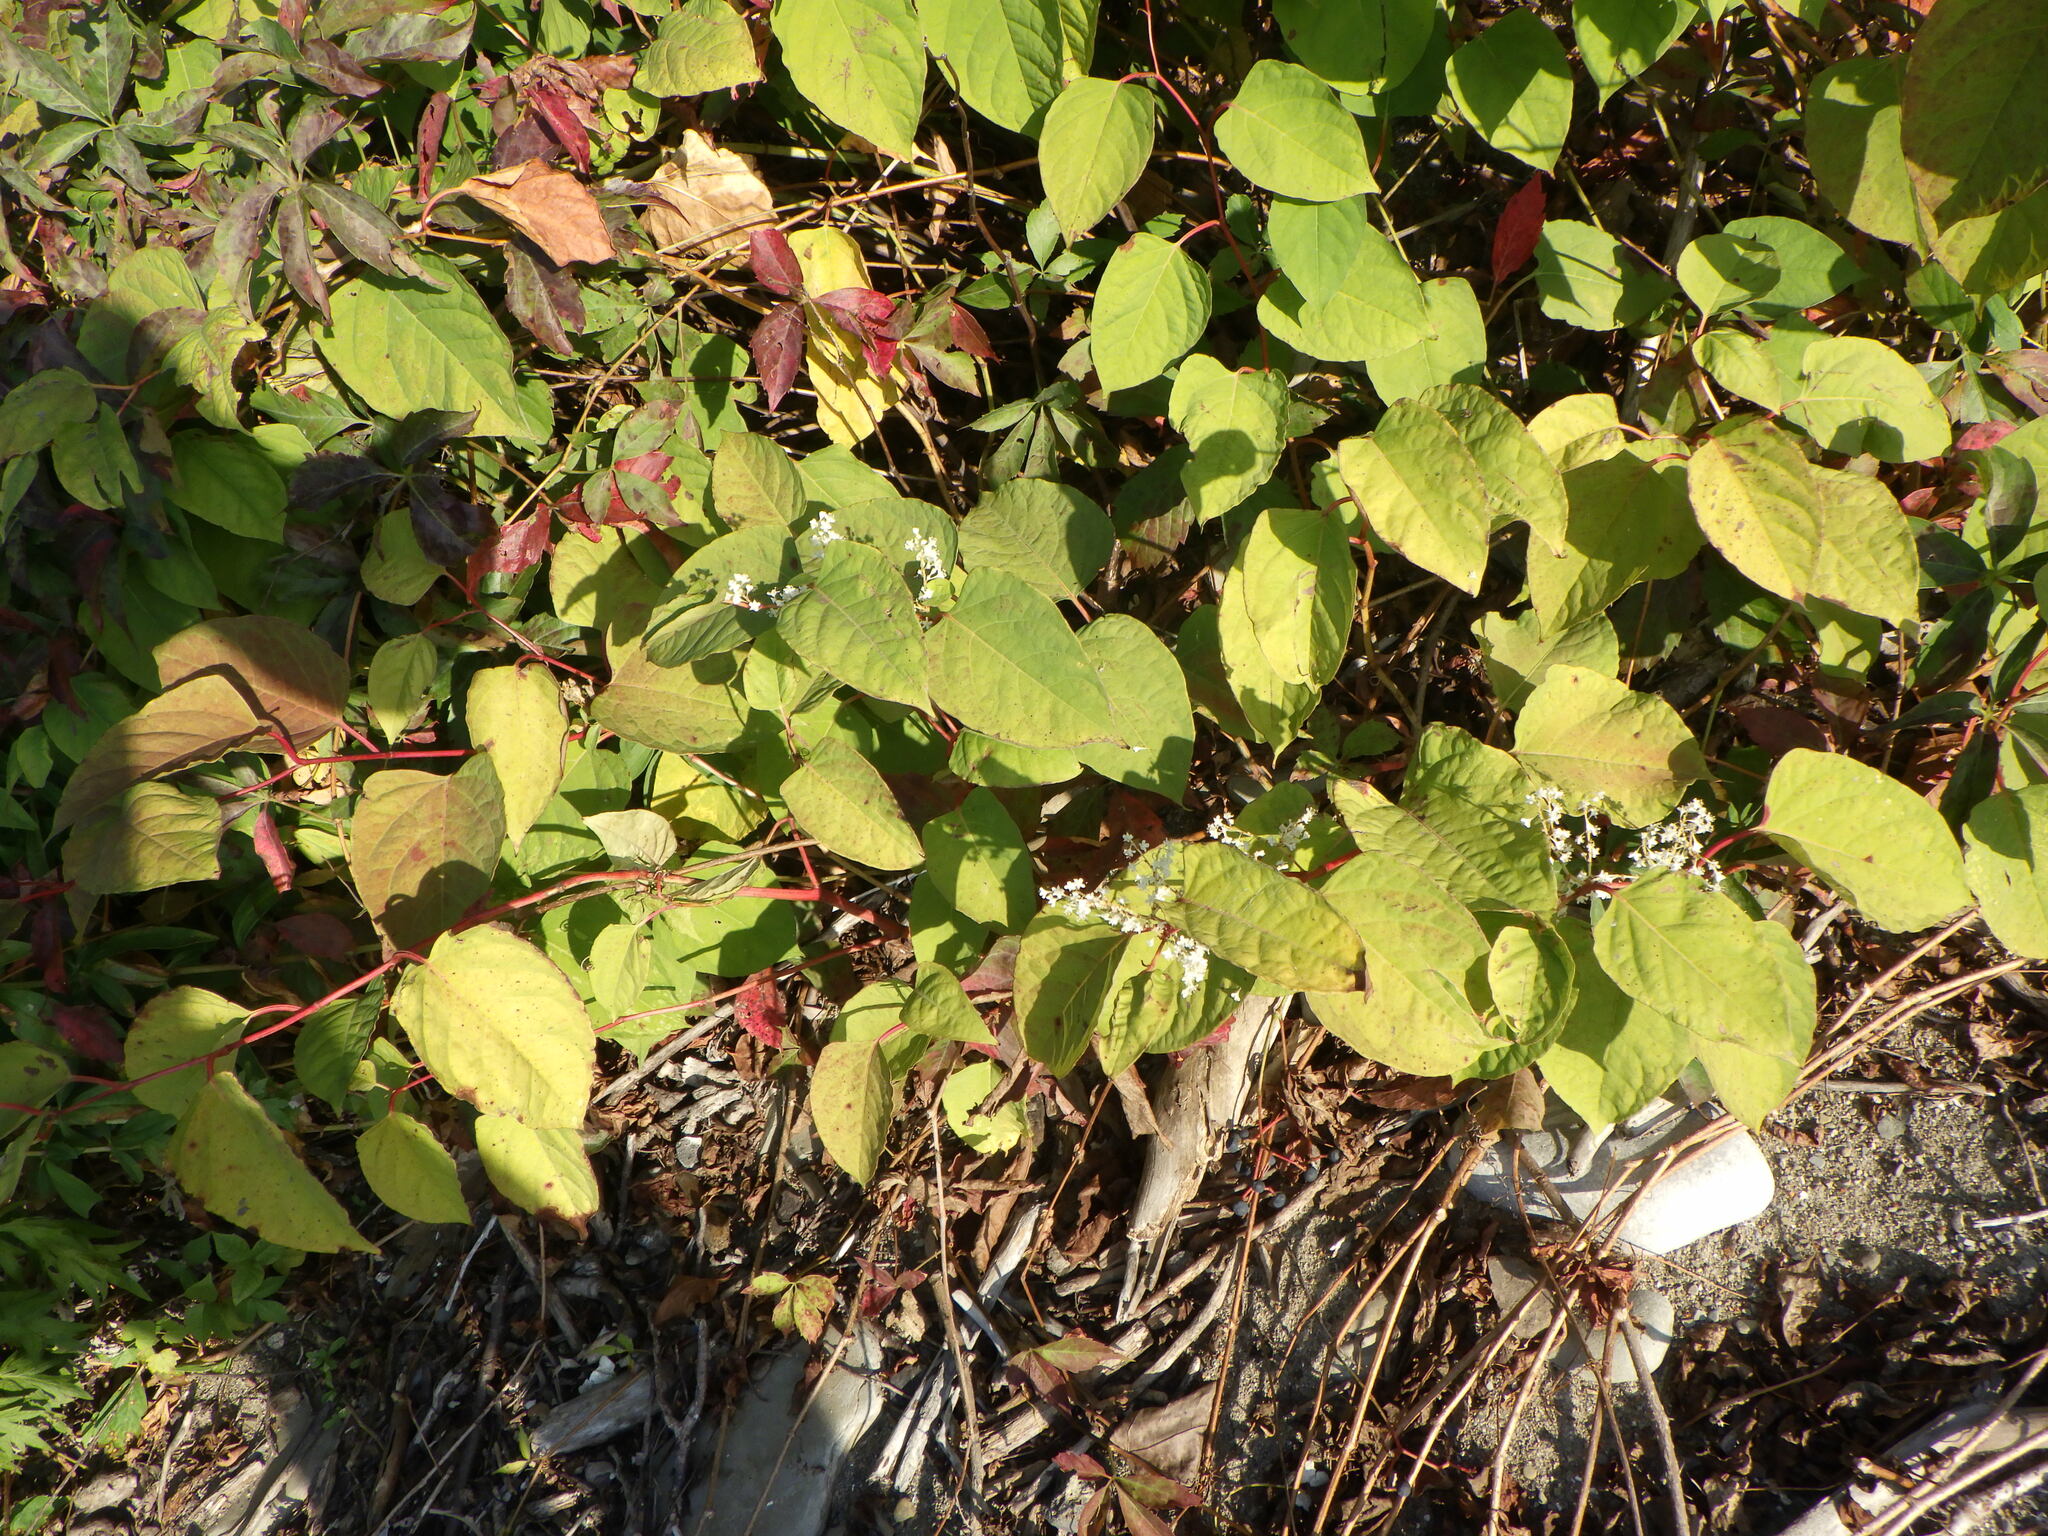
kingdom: Plantae
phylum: Tracheophyta
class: Magnoliopsida
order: Caryophyllales
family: Polygonaceae
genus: Reynoutria
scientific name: Reynoutria japonica
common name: Japanese knotweed
